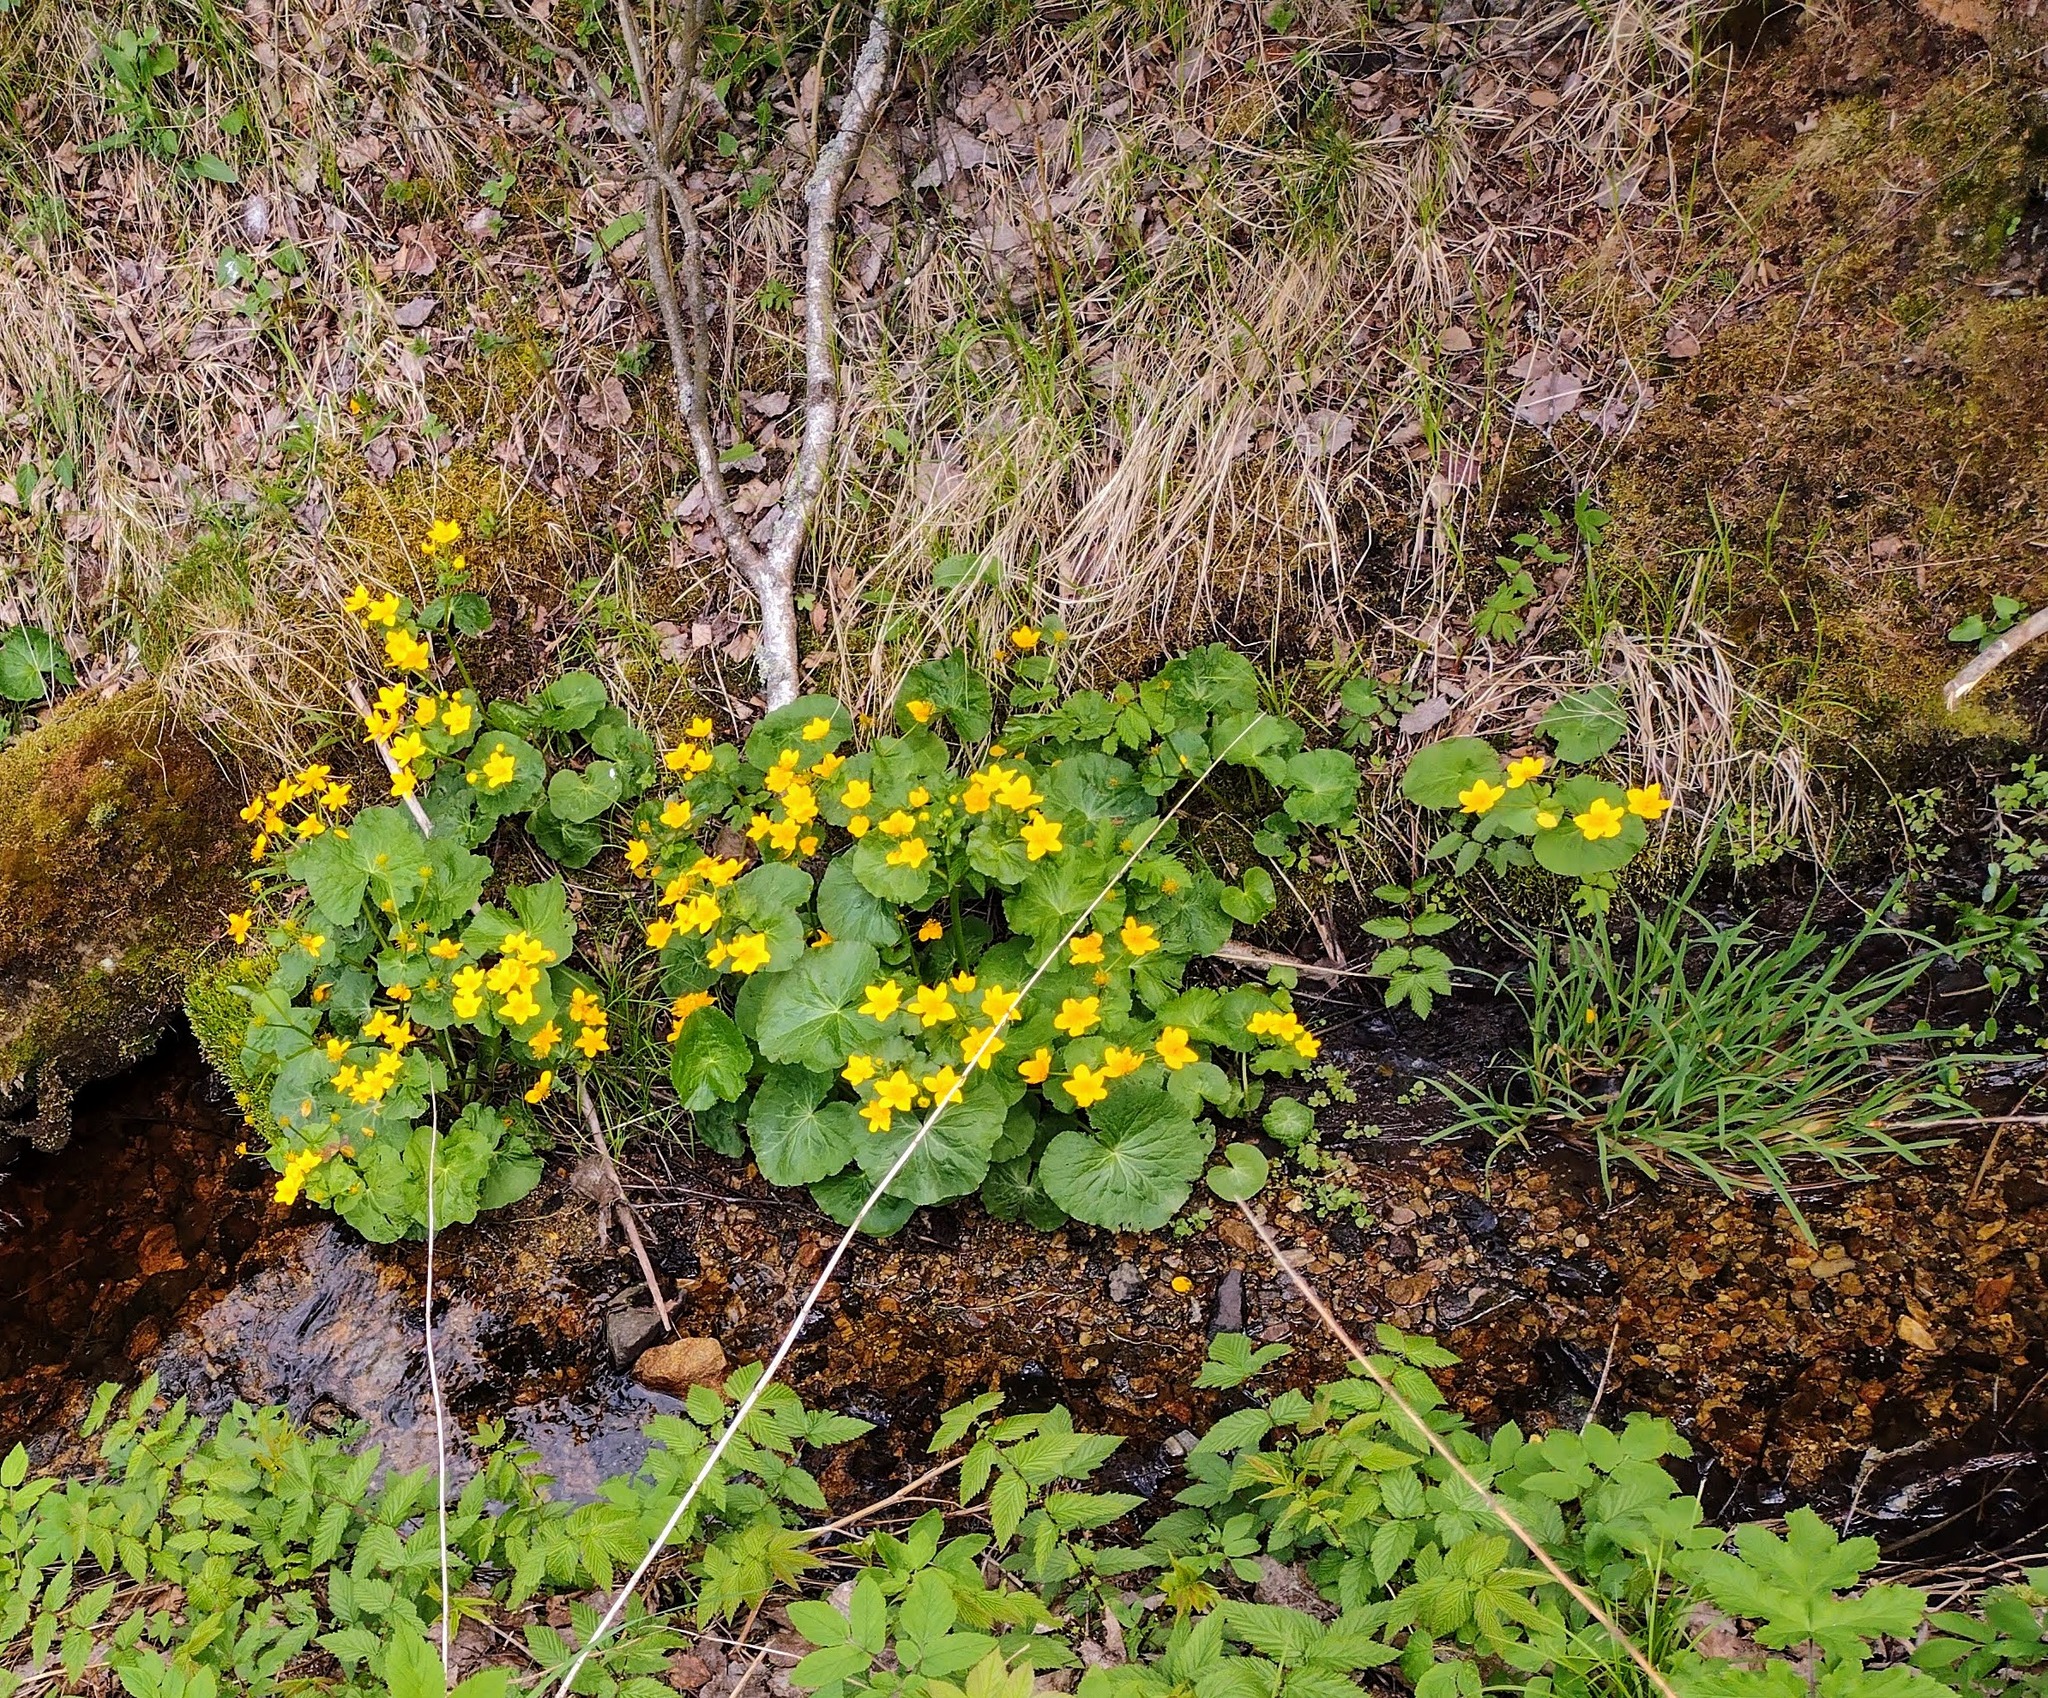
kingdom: Plantae
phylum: Tracheophyta
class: Magnoliopsida
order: Ranunculales
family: Ranunculaceae
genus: Caltha
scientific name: Caltha palustris
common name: Marsh marigold
